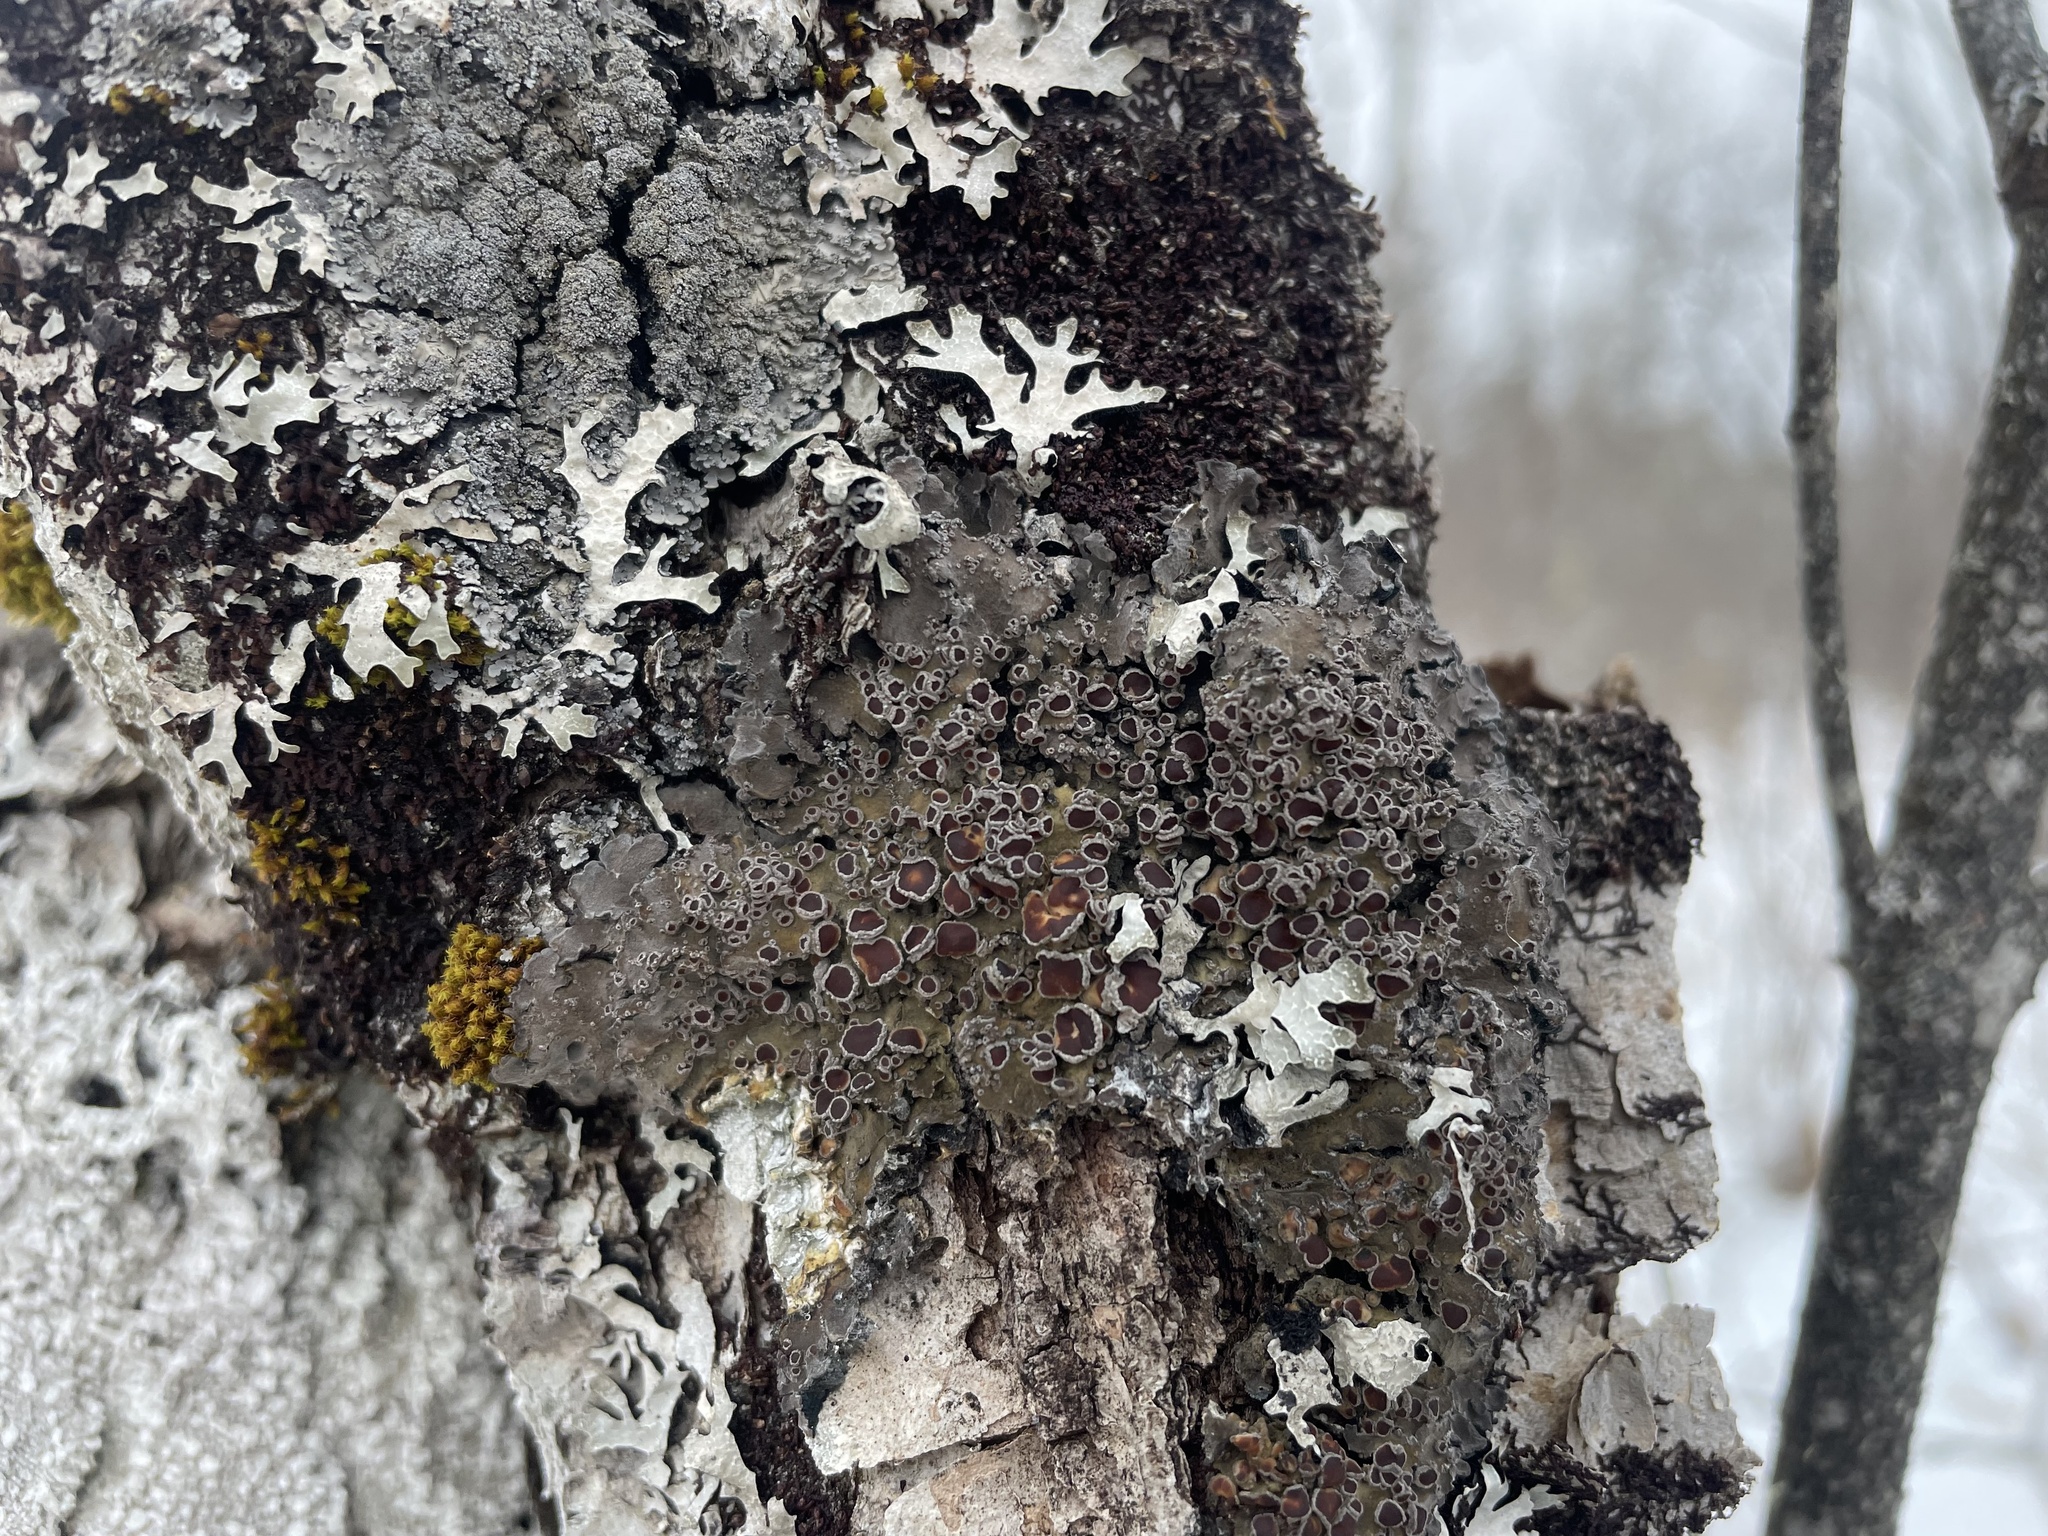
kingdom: Fungi
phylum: Ascomycota
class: Lecanoromycetes
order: Peltigerales
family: Pannariaceae
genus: Pannaria
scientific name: Pannaria lurida
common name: Wrinkled shingle lichen
